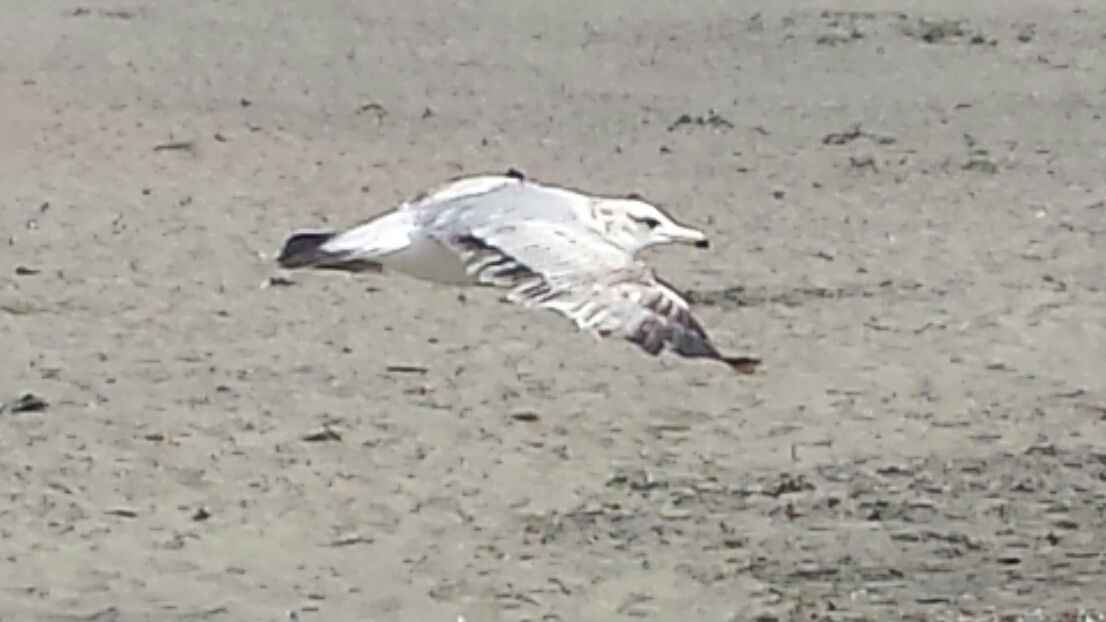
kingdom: Animalia
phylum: Chordata
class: Aves
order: Charadriiformes
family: Laridae
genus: Larus
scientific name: Larus californicus
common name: California gull
